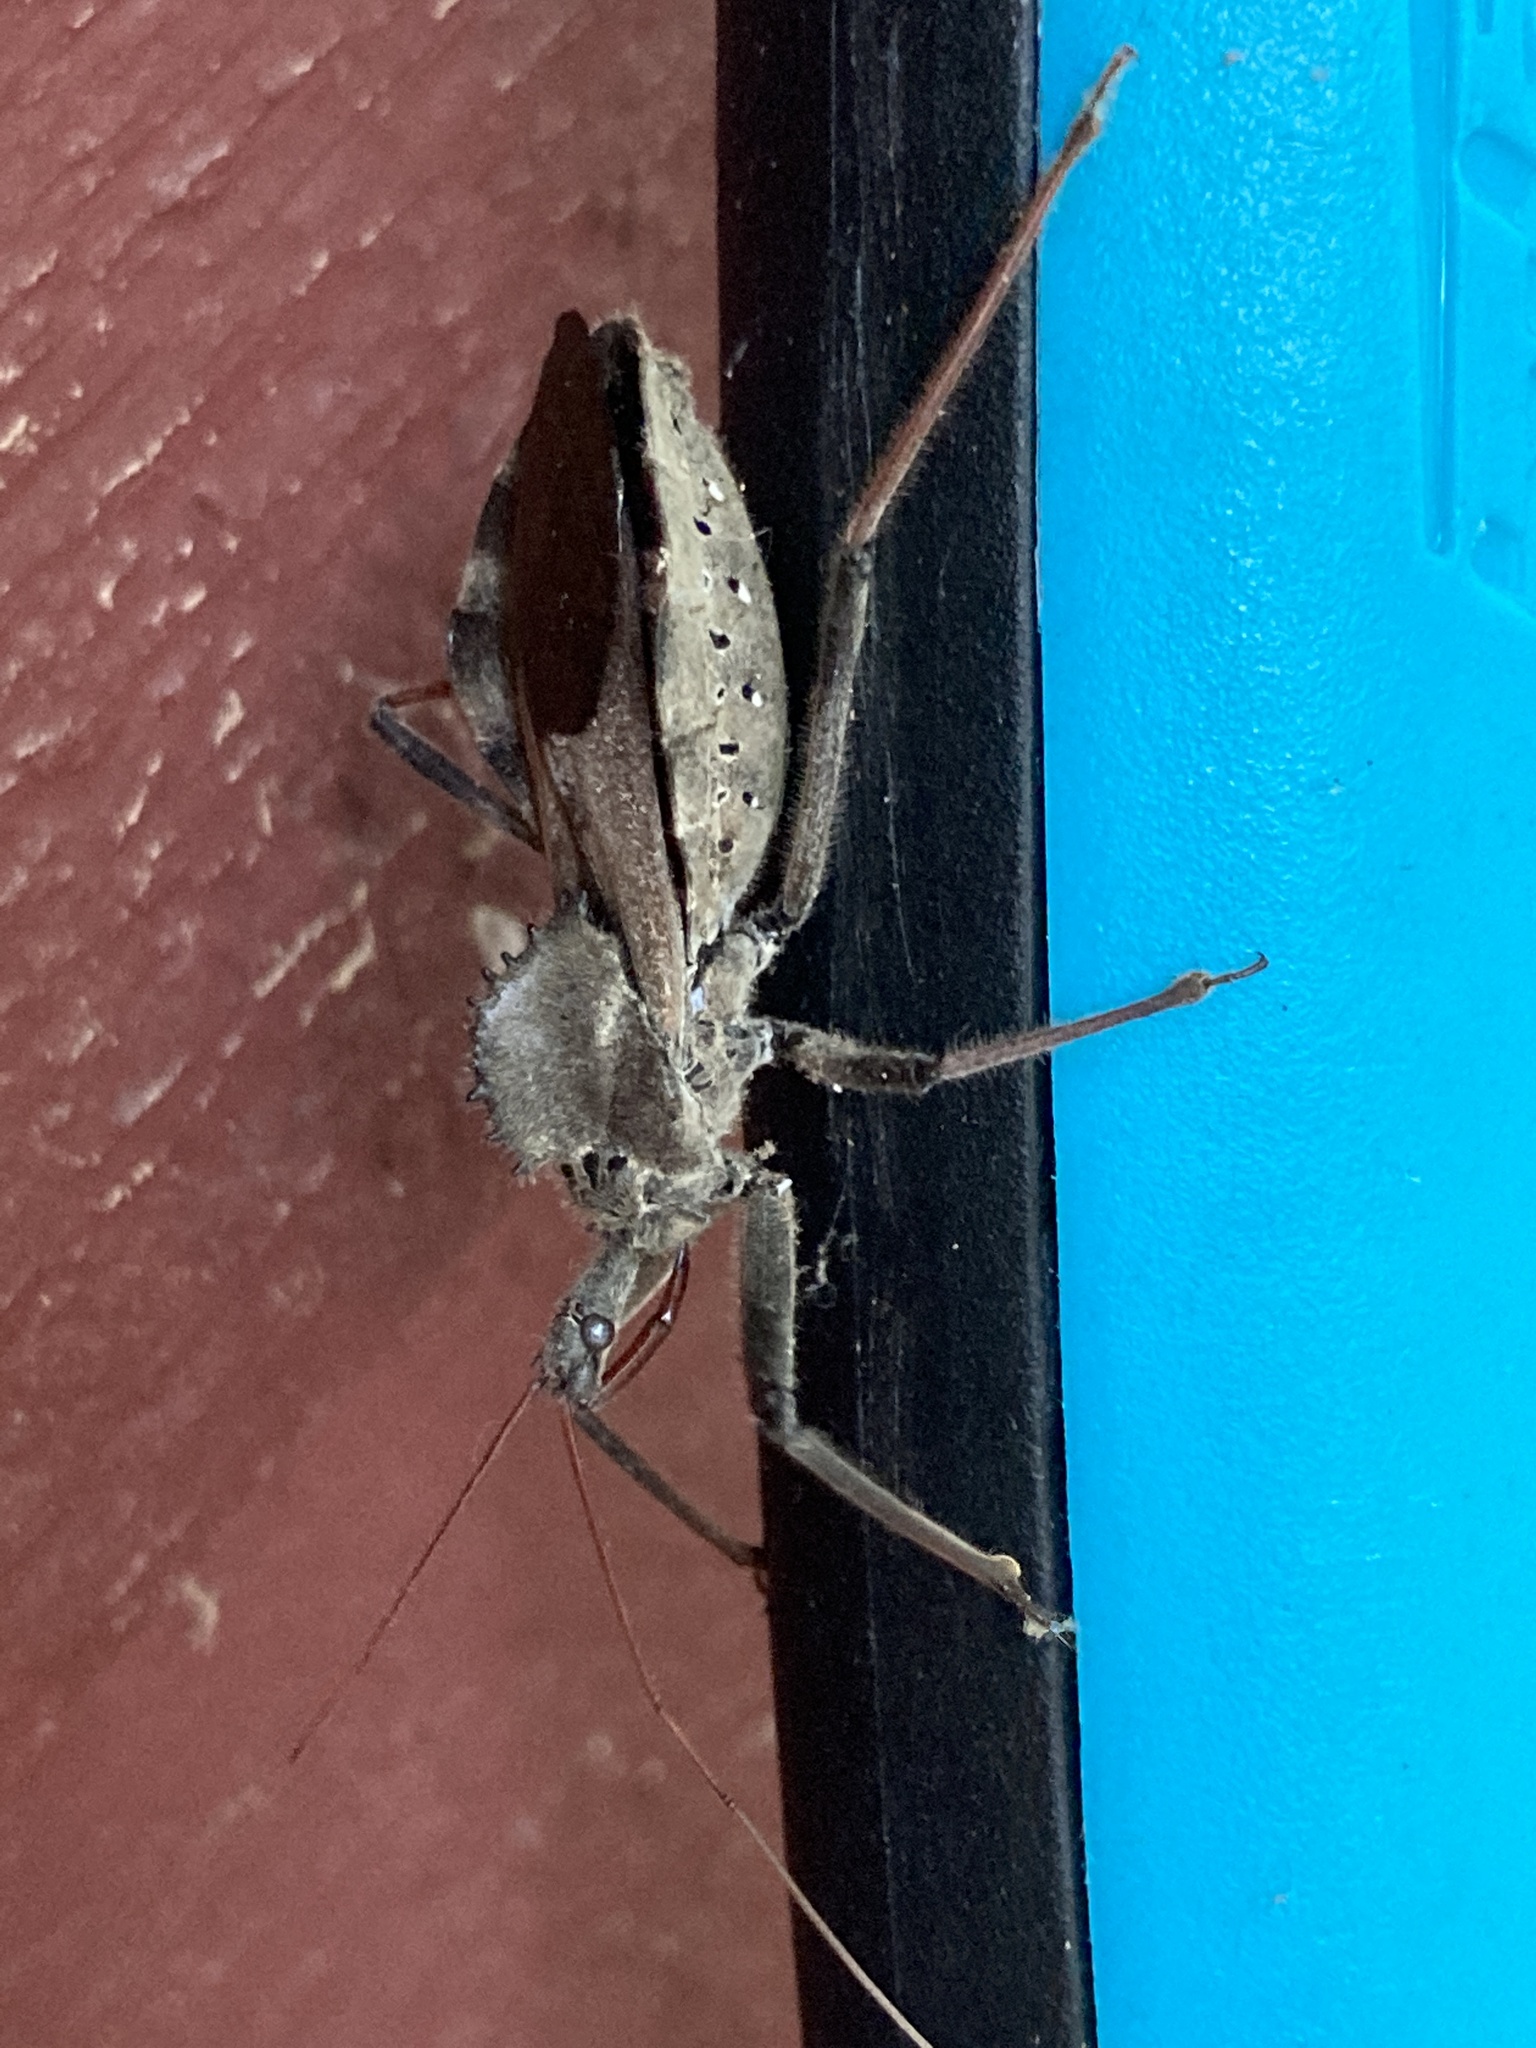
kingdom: Animalia
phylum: Arthropoda
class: Insecta
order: Hemiptera
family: Reduviidae
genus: Arilus
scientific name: Arilus cristatus
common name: North american wheel bug
